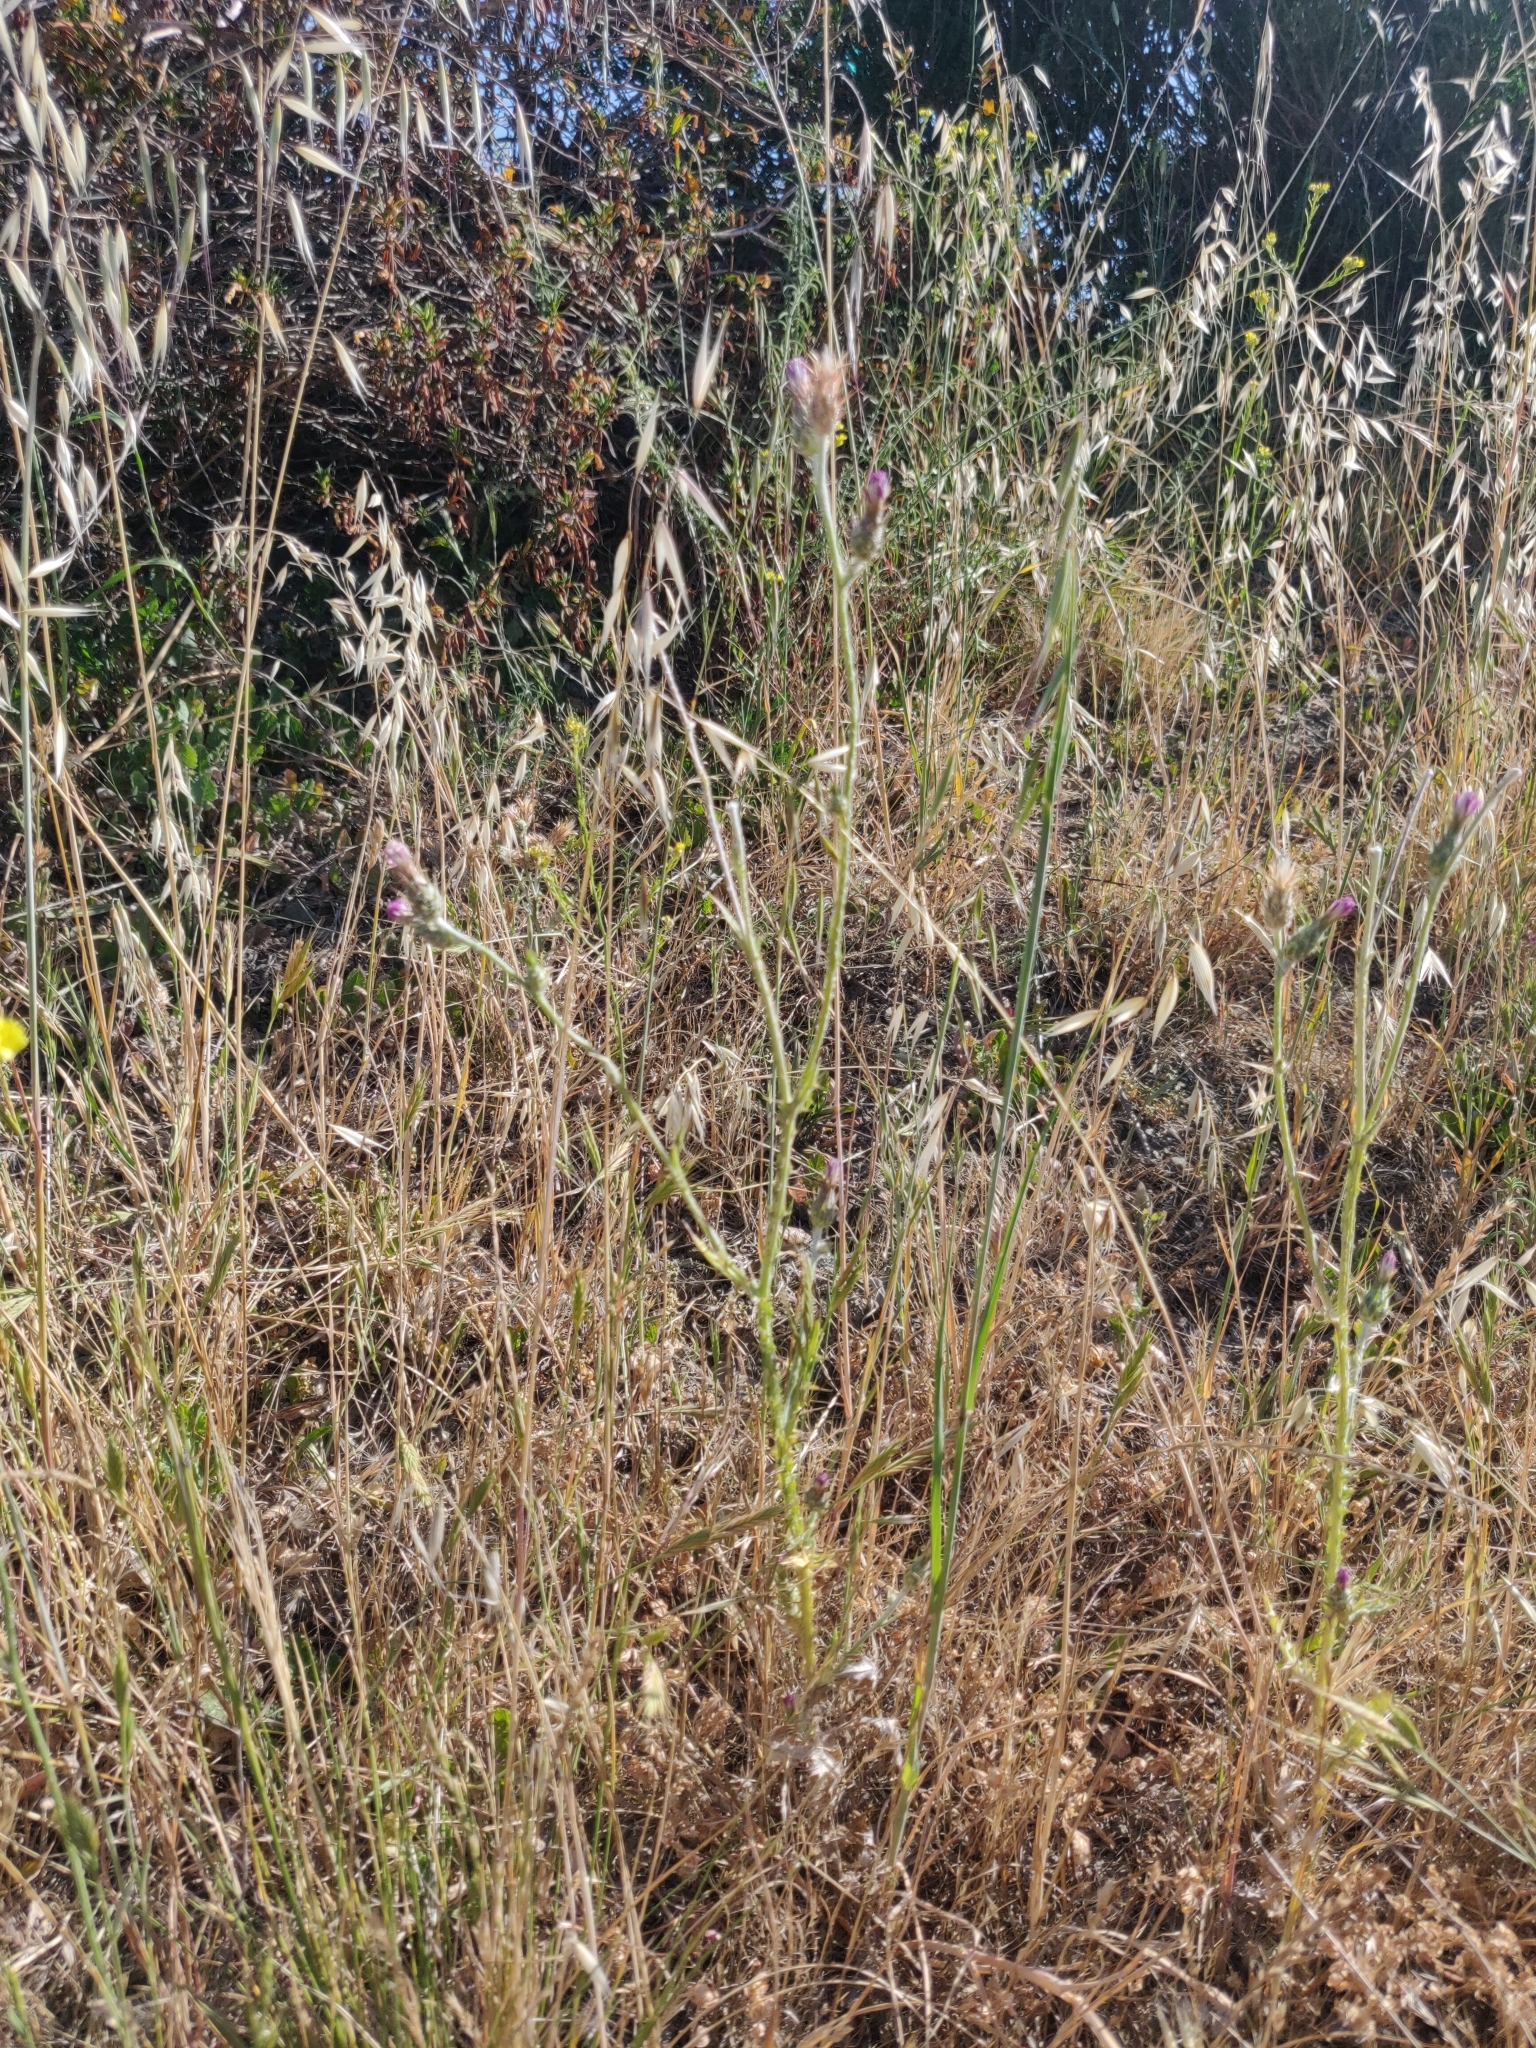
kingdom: Plantae
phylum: Tracheophyta
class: Magnoliopsida
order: Asterales
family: Asteraceae
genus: Carduus
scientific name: Carduus pycnocephalus
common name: Plymouth thistle
